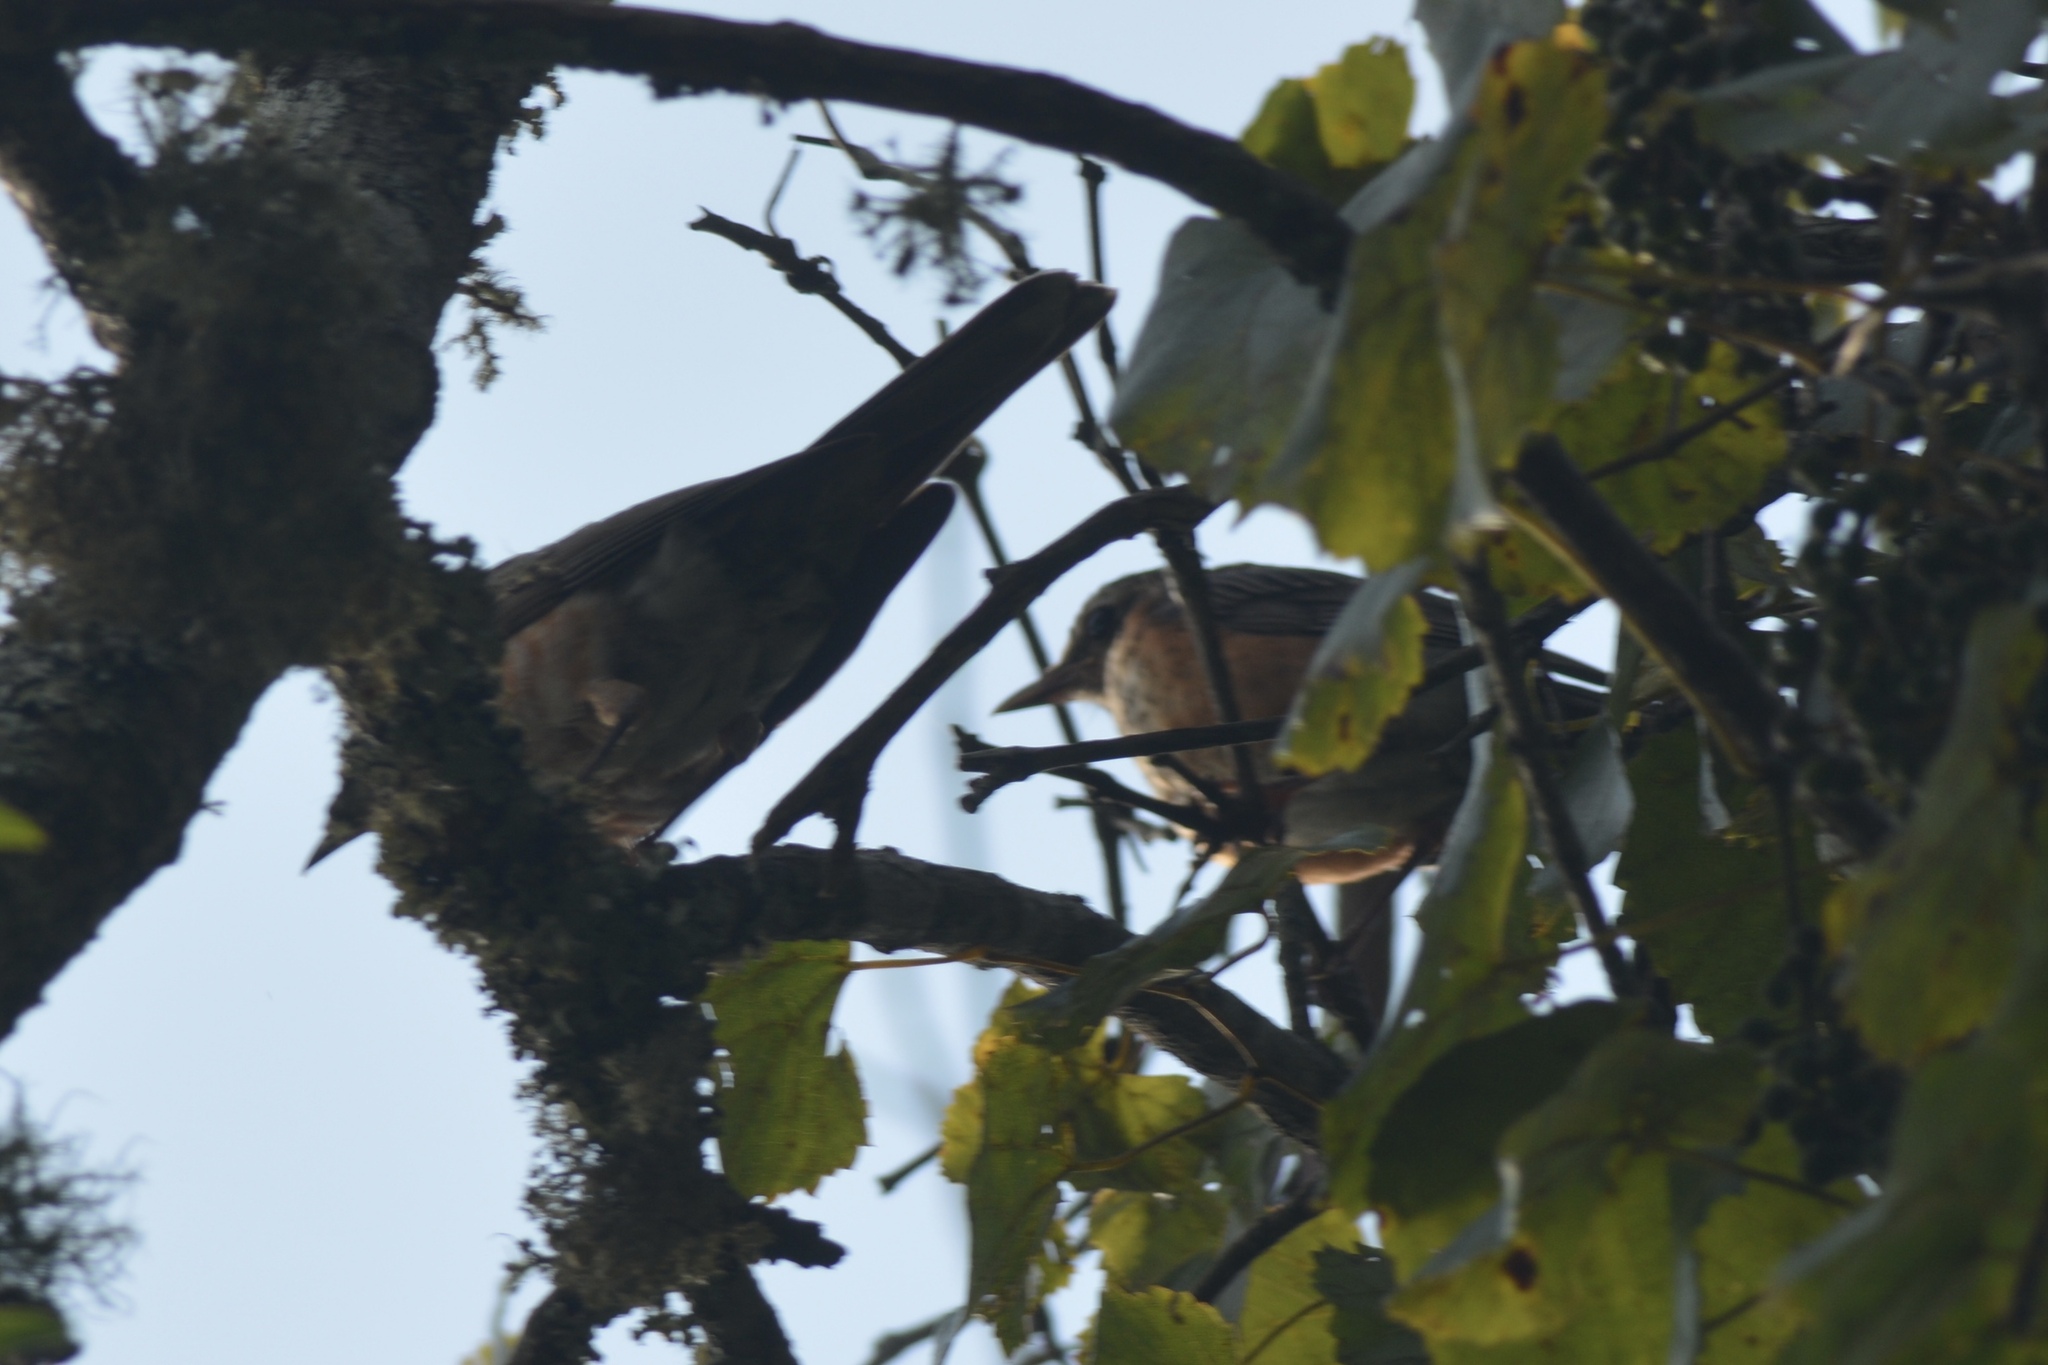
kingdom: Animalia
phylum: Chordata
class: Aves
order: Passeriformes
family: Turdidae
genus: Turdus
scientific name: Turdus migratorius
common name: American robin
